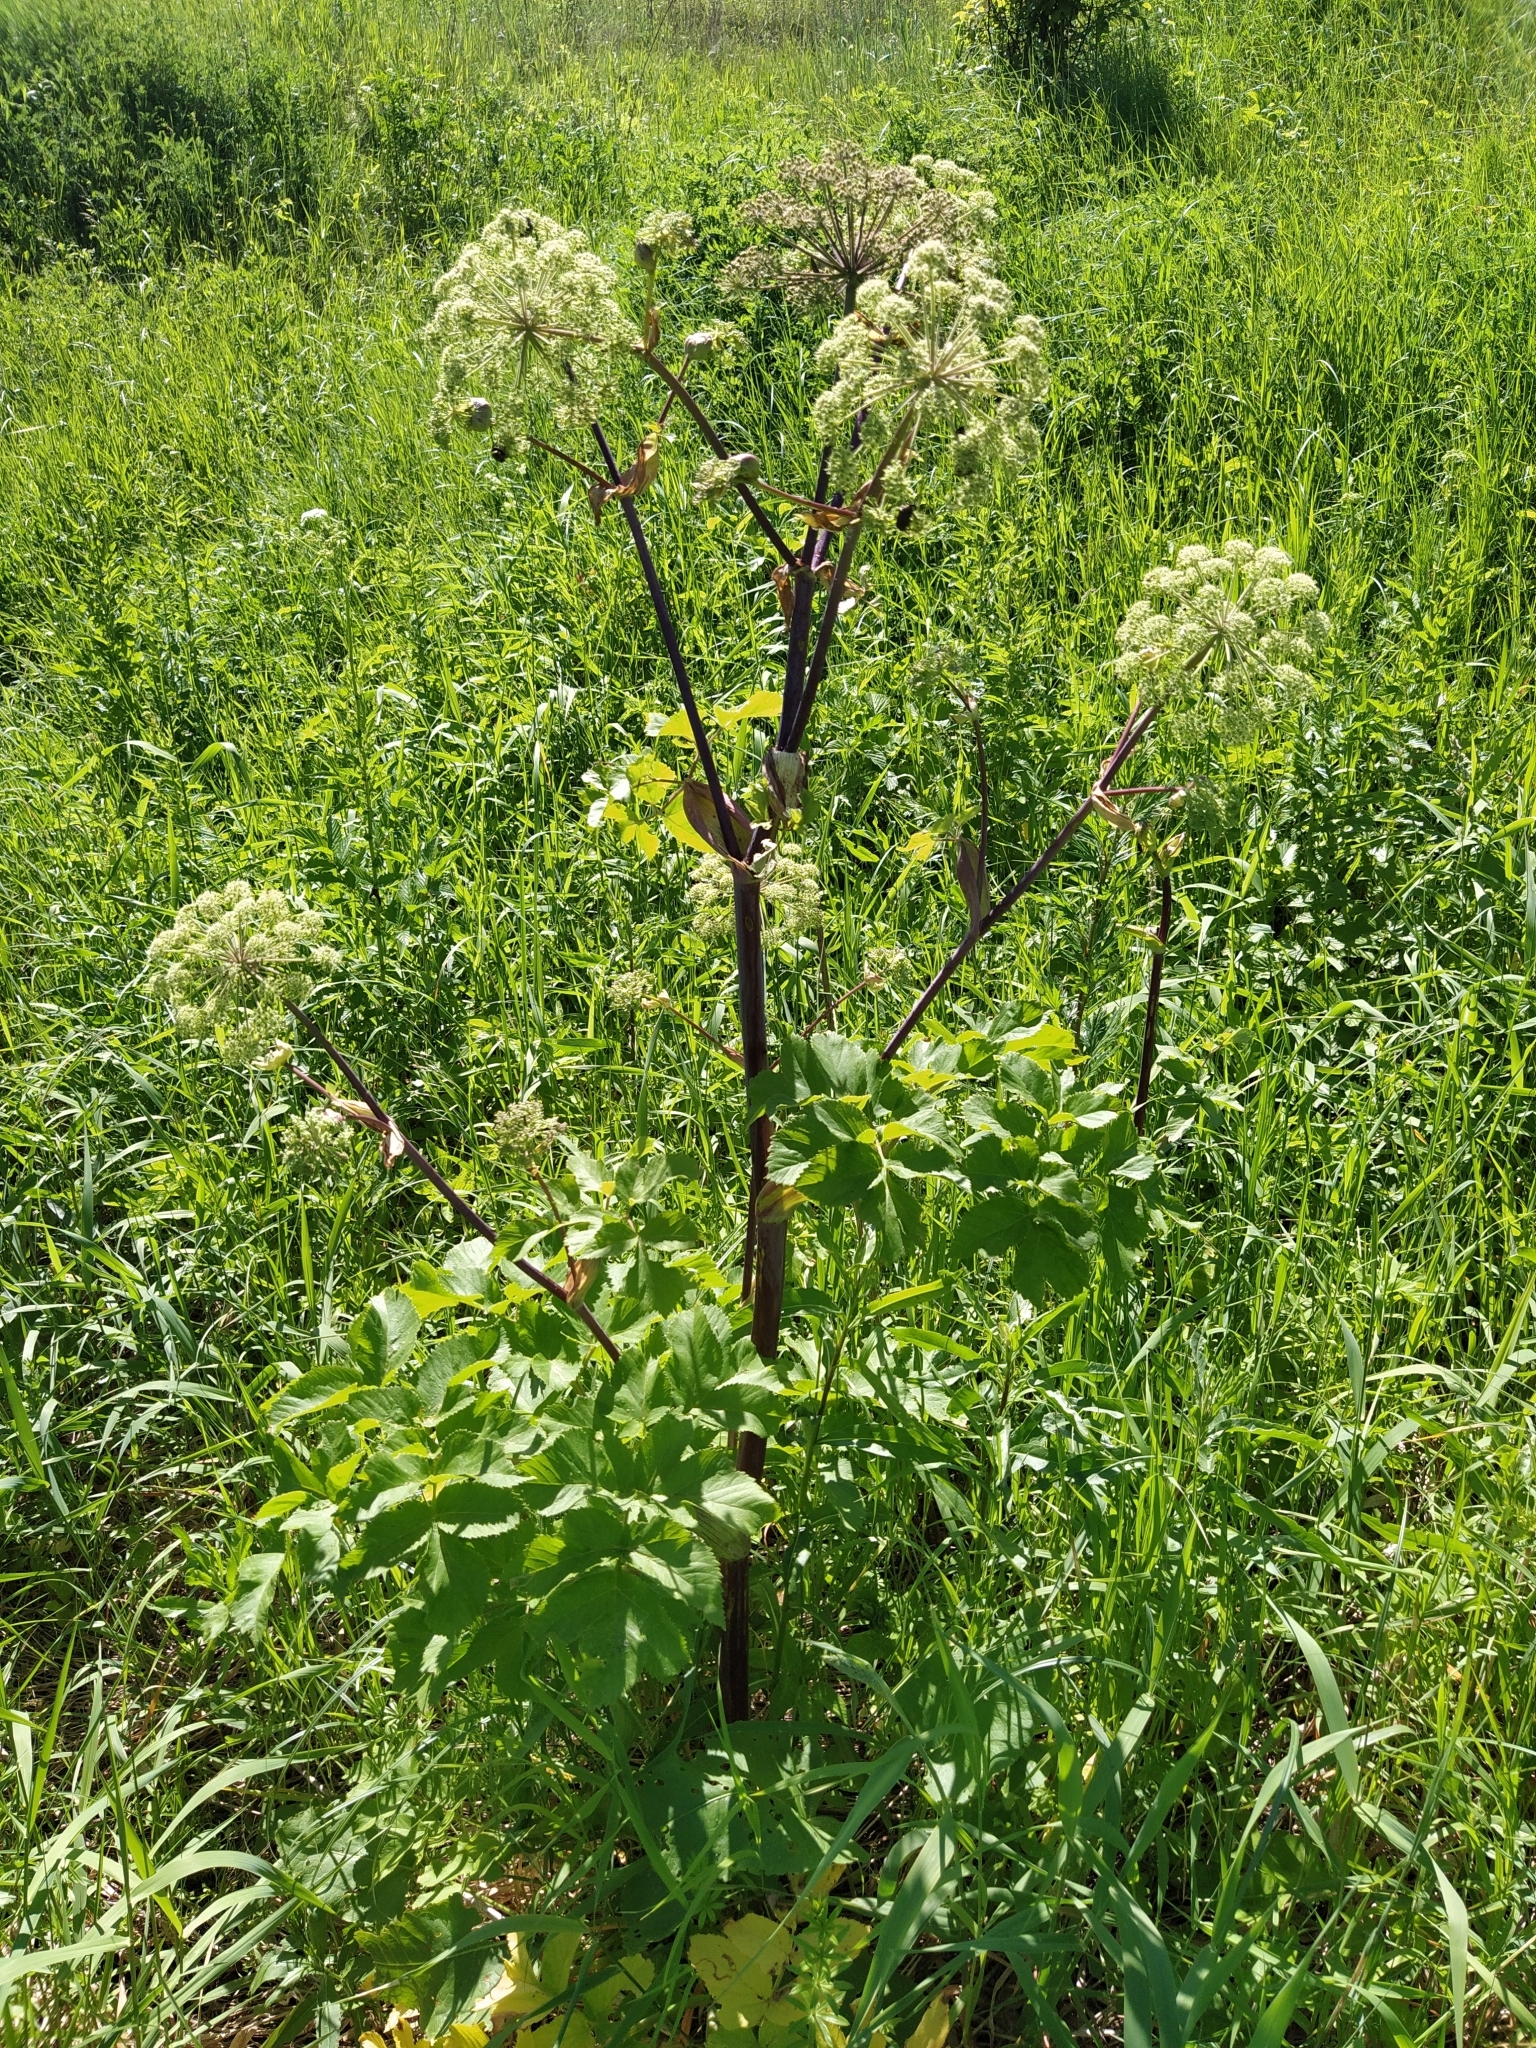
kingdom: Plantae
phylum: Tracheophyta
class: Magnoliopsida
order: Apiales
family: Apiaceae
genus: Angelica
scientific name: Angelica archangelica
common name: Garden angelica
